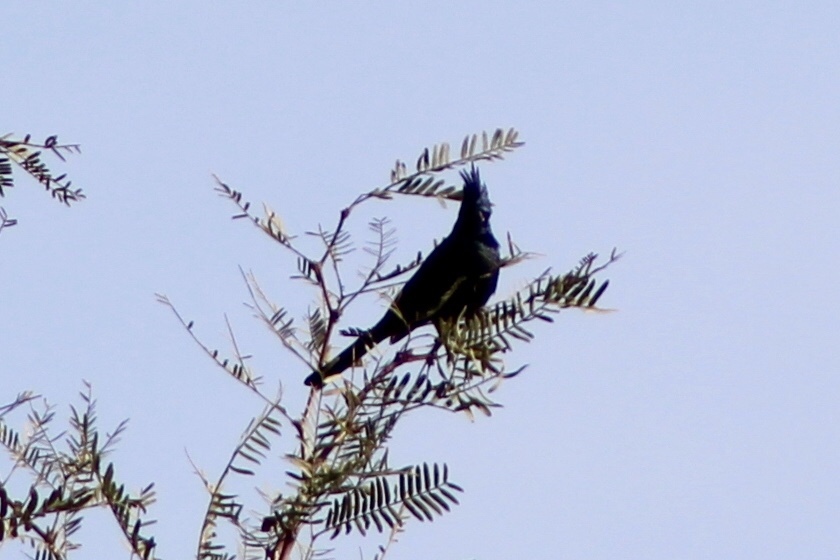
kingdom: Animalia
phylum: Chordata
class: Aves
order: Passeriformes
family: Ptilogonatidae
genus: Phainopepla
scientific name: Phainopepla nitens
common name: Phainopepla
